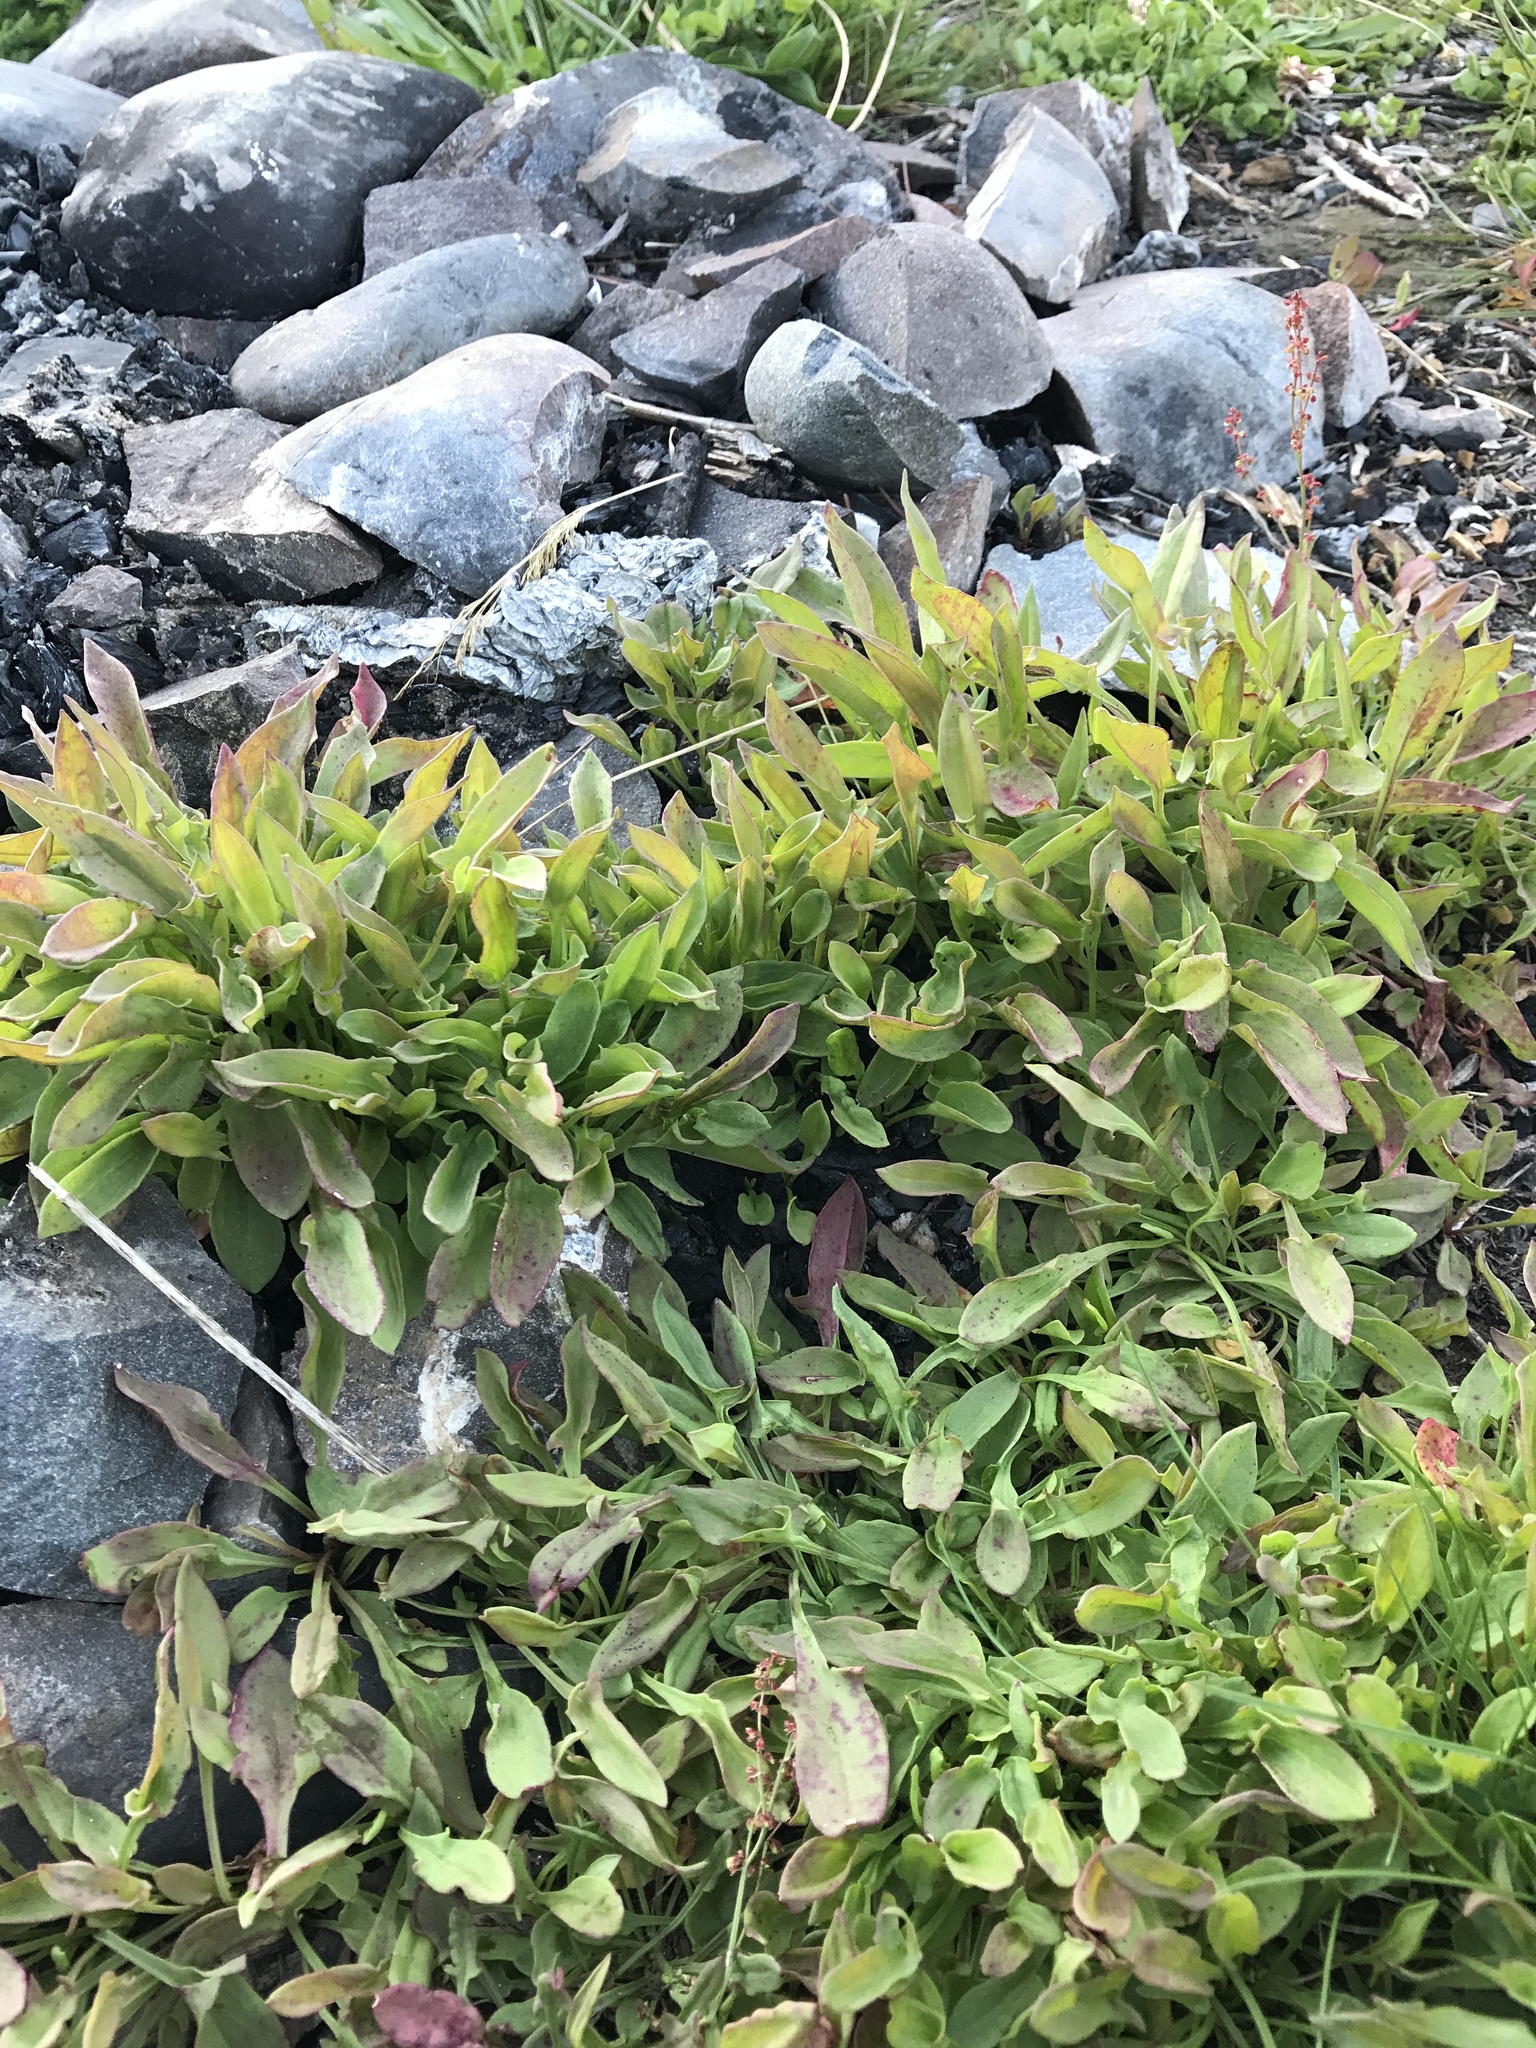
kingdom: Plantae
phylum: Tracheophyta
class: Magnoliopsida
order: Caryophyllales
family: Polygonaceae
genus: Rumex
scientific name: Rumex acetosella
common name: Common sheep sorrel
